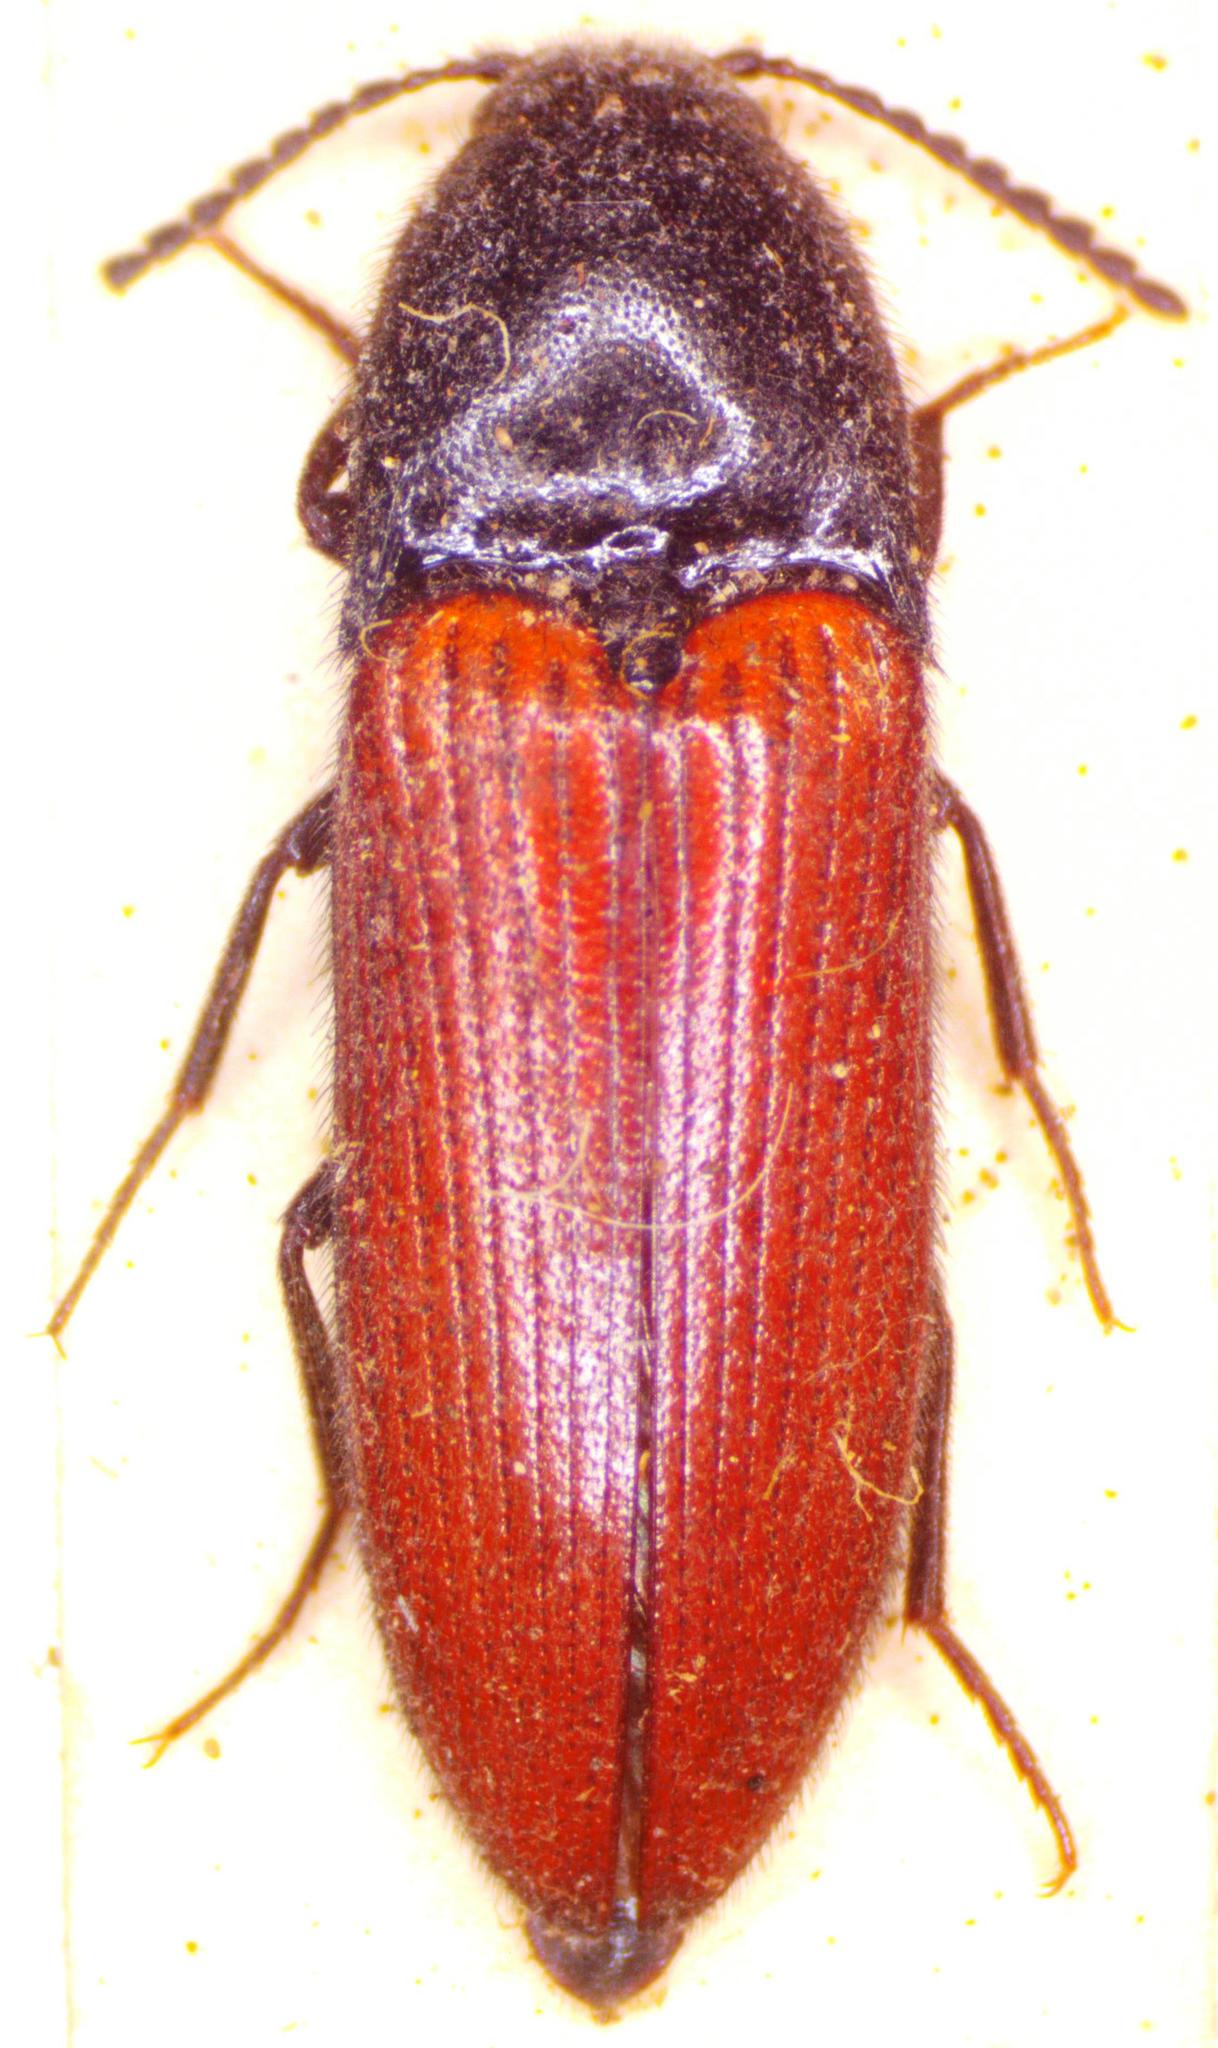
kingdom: Animalia
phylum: Arthropoda
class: Insecta
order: Coleoptera
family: Elateridae
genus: Ampedus
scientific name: Ampedus pomorum
